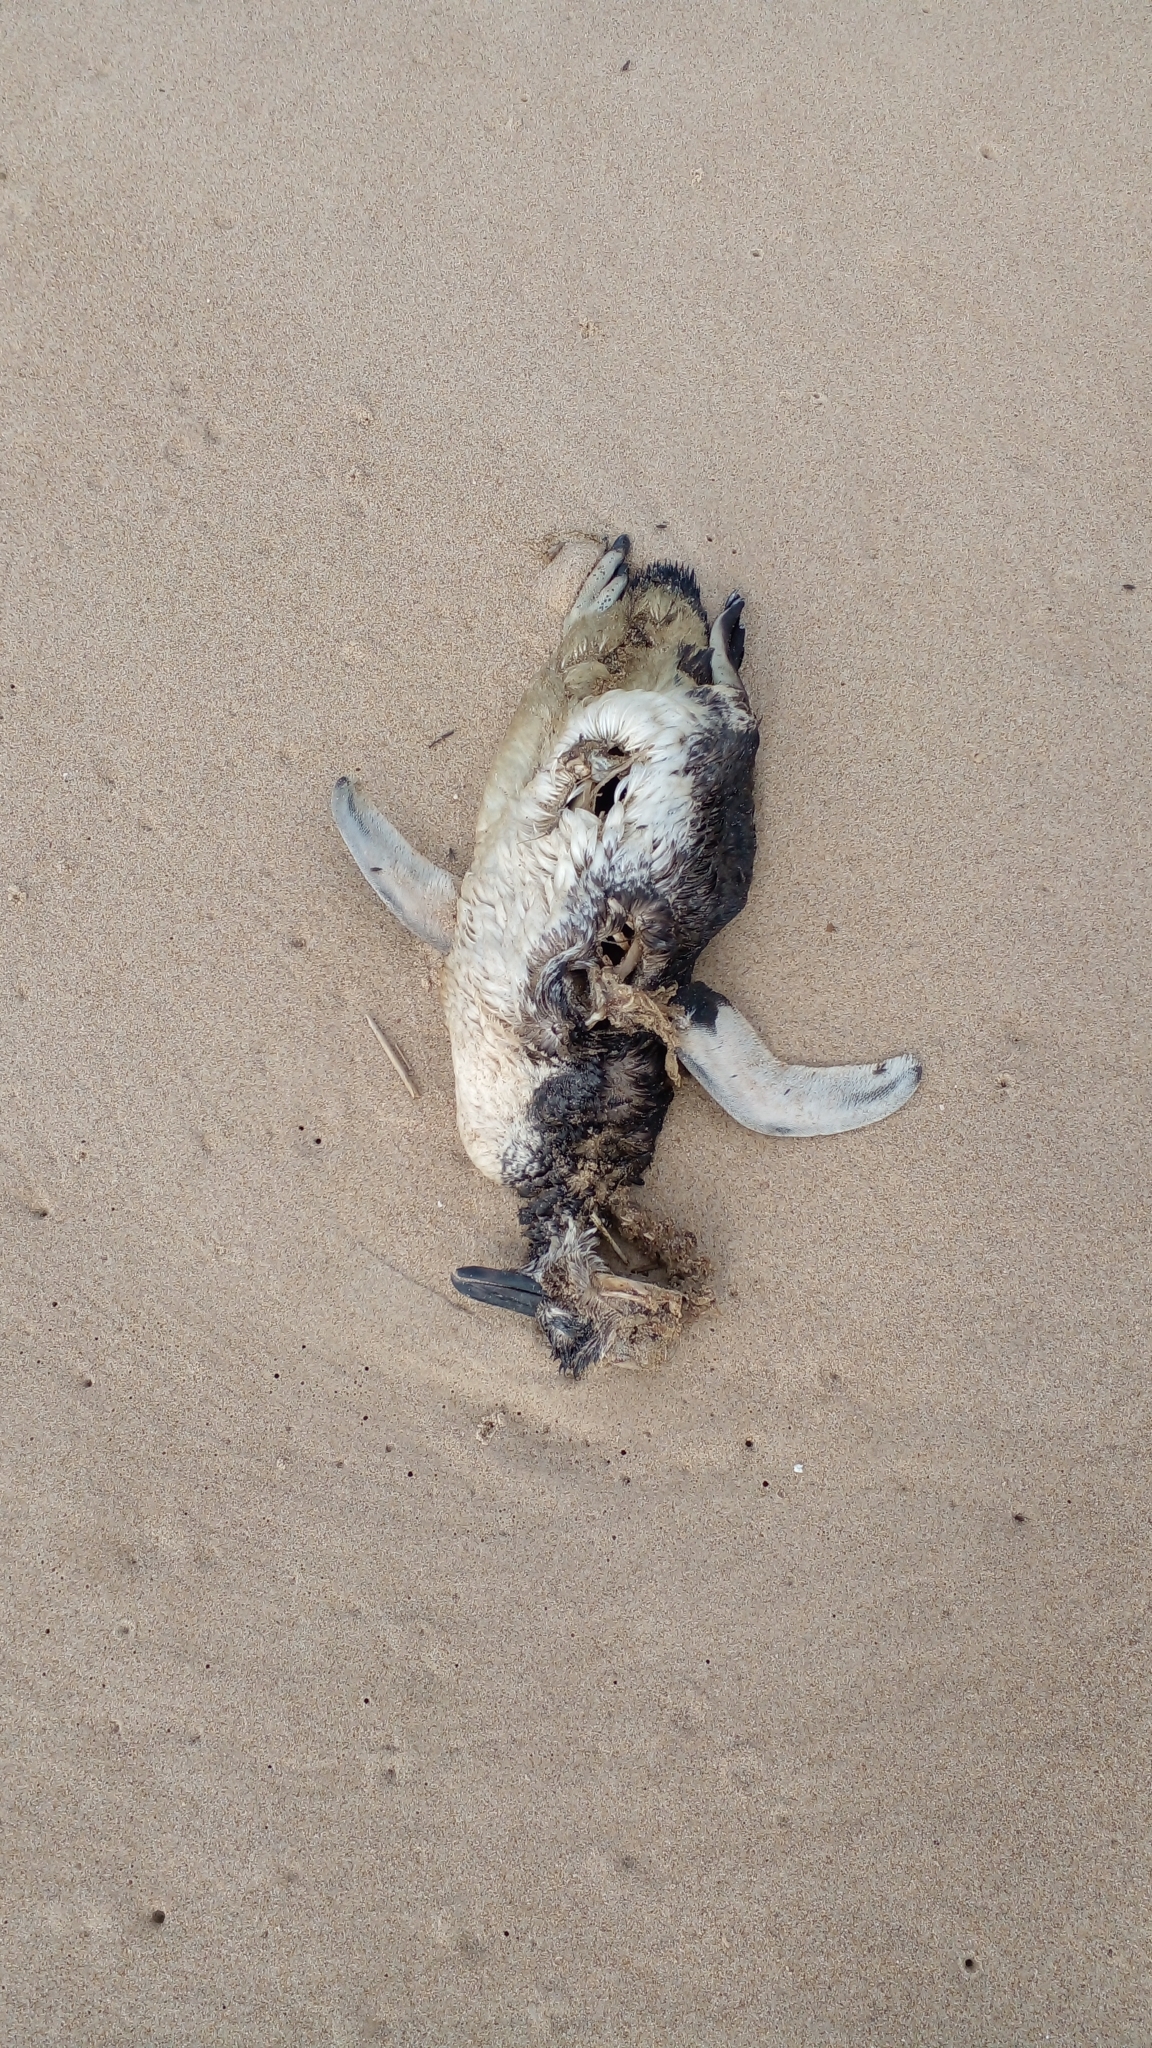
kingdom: Animalia
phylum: Chordata
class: Aves
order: Sphenisciformes
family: Spheniscidae
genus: Spheniscus
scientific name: Spheniscus magellanicus
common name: Magellanic penguin
